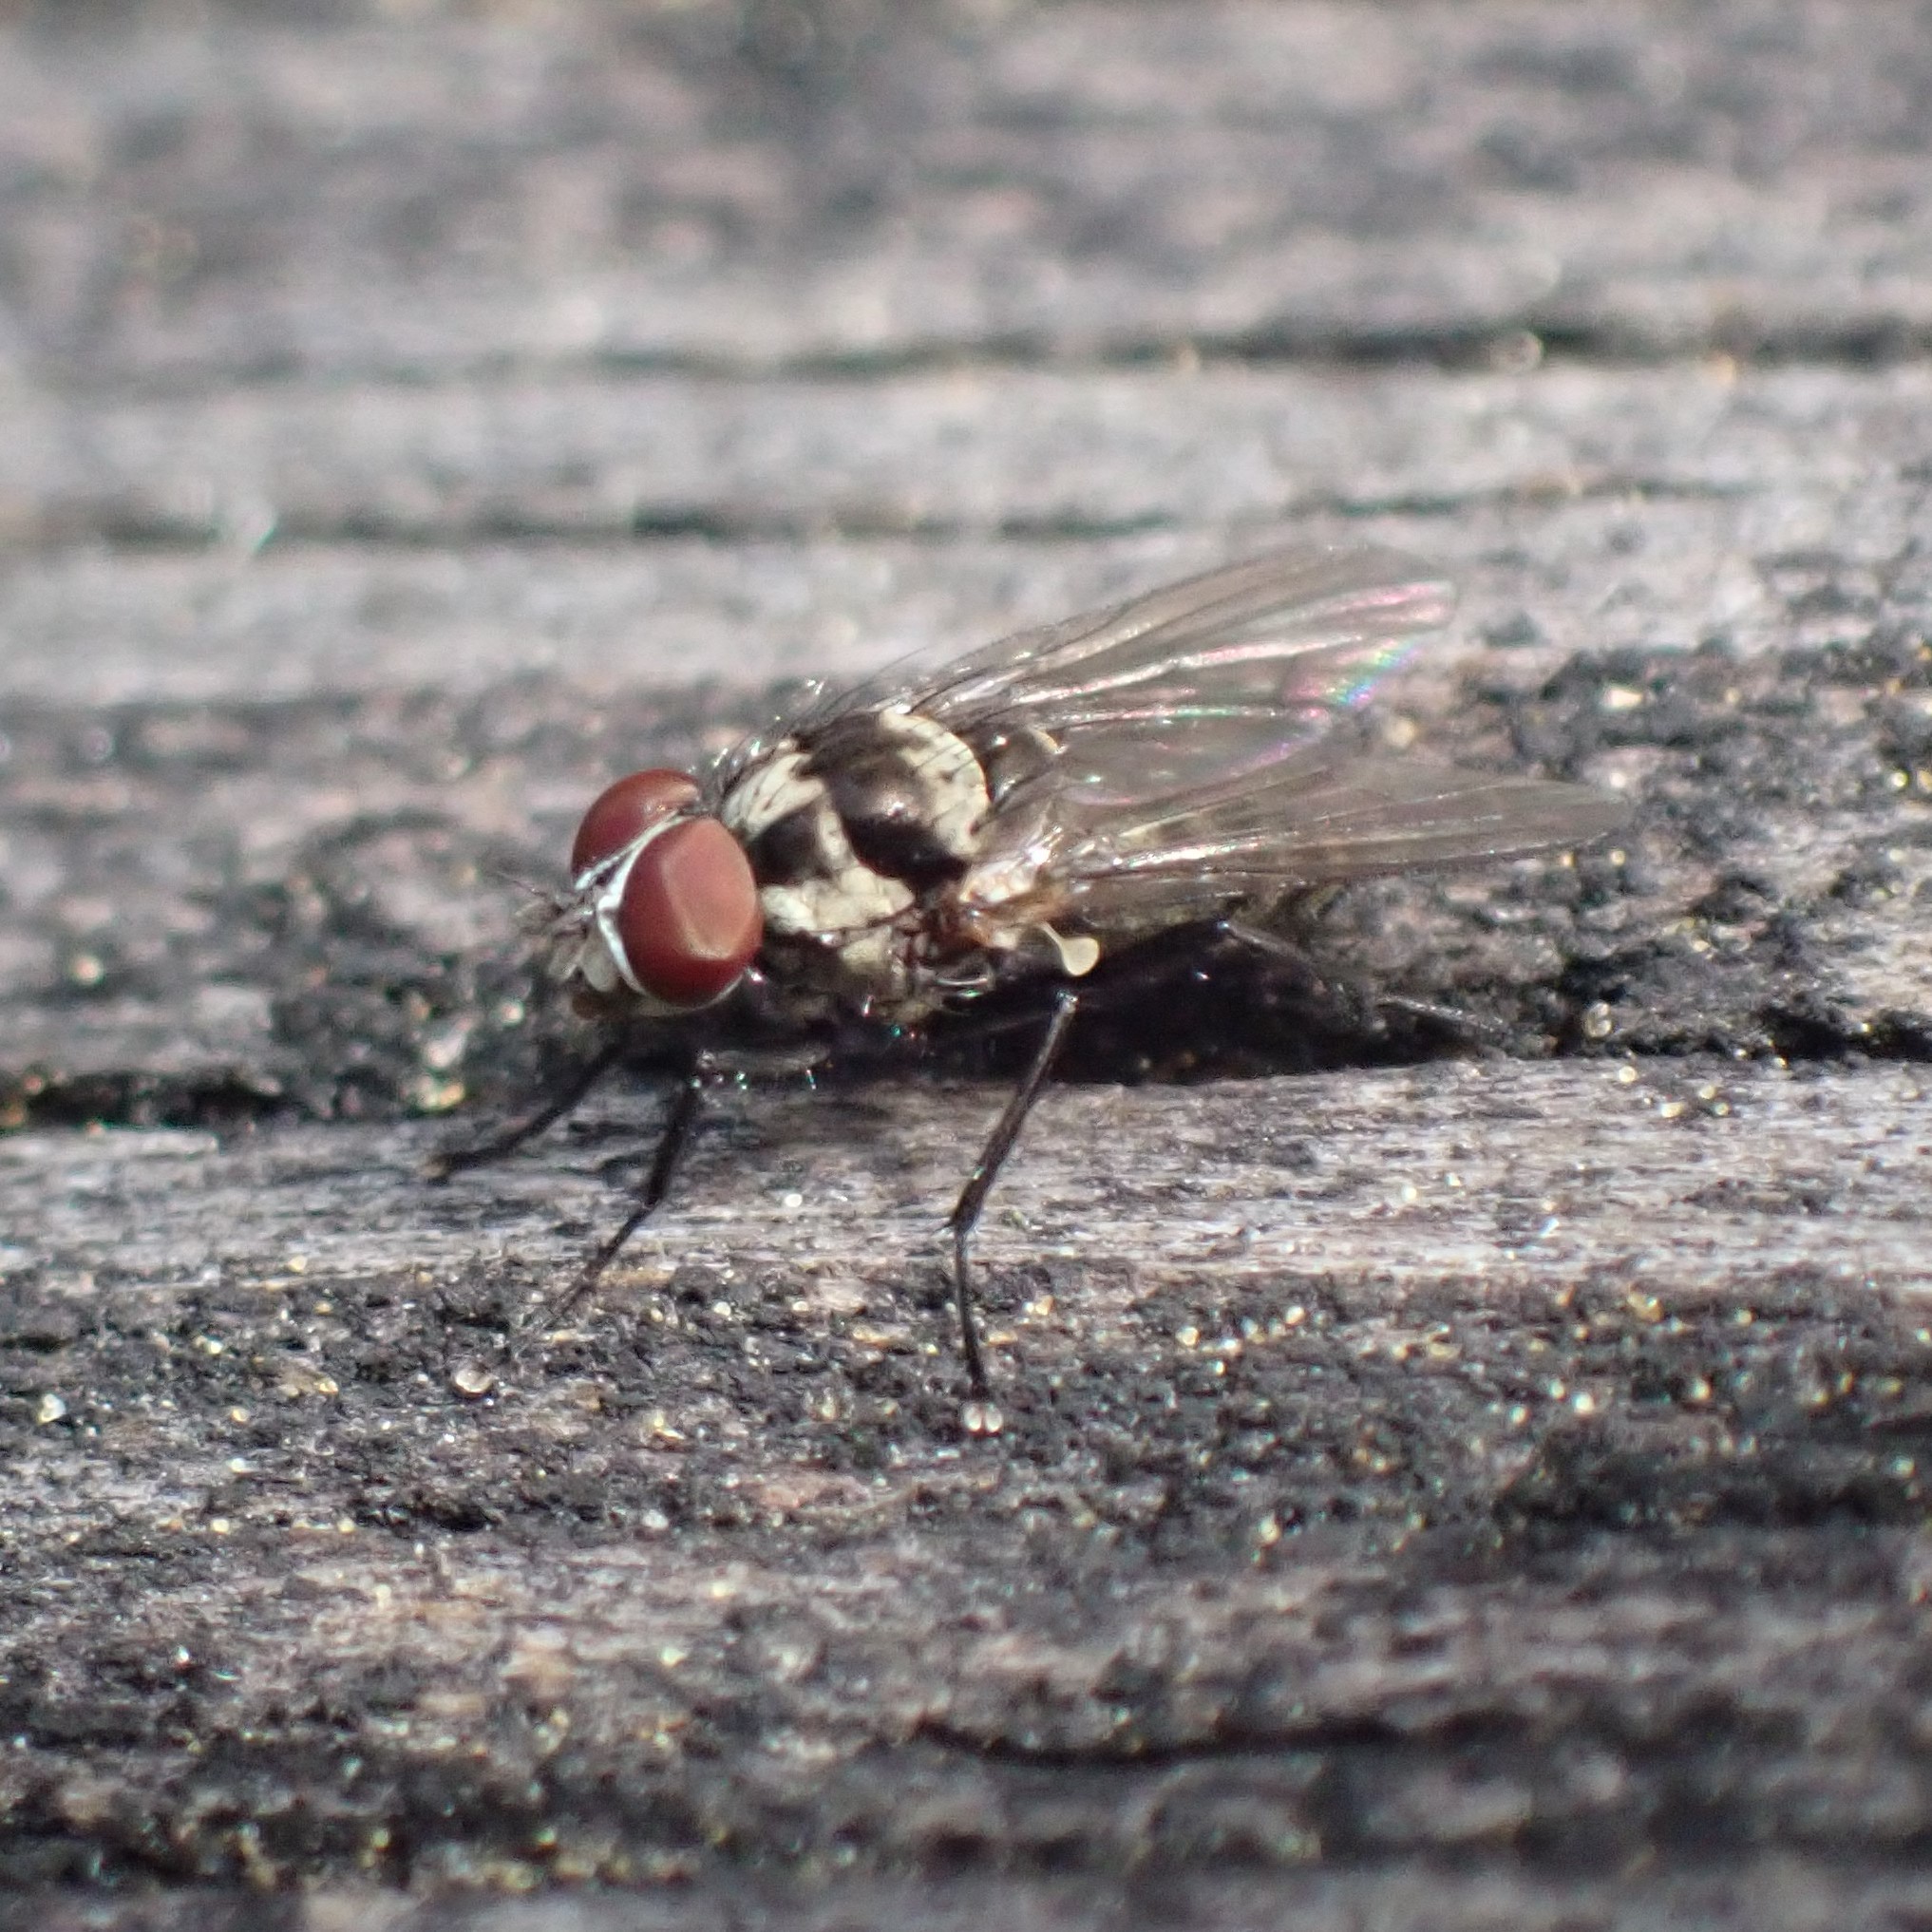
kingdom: Animalia
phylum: Arthropoda
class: Insecta
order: Diptera
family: Anthomyiidae
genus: Anthomyia
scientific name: Anthomyia oculifera
